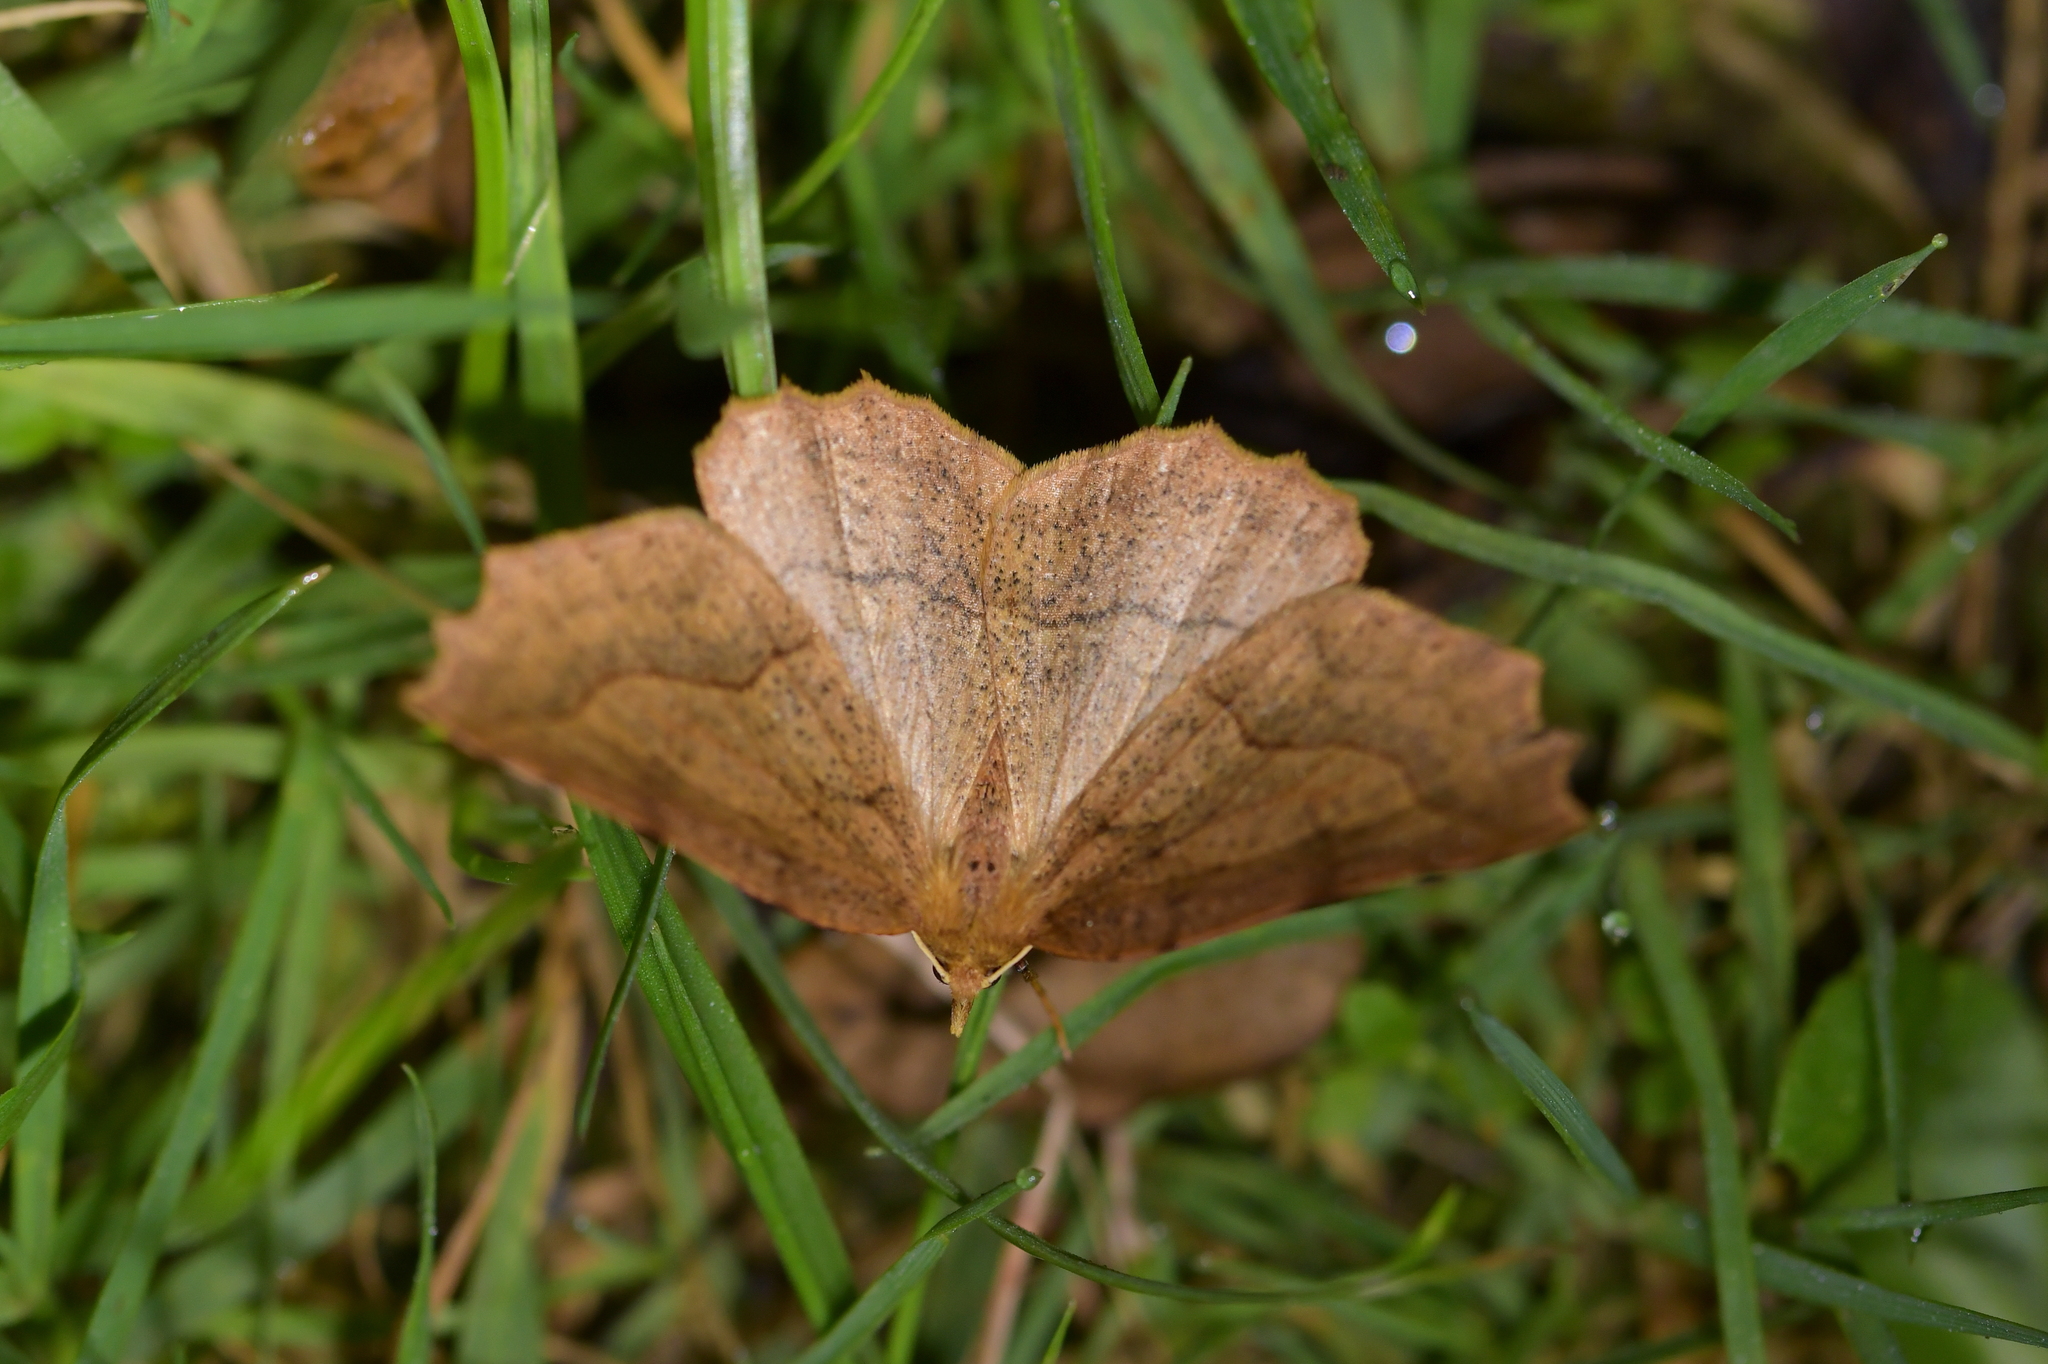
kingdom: Animalia
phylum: Arthropoda
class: Insecta
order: Lepidoptera
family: Geometridae
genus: Ischalis
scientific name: Ischalis variabilis
